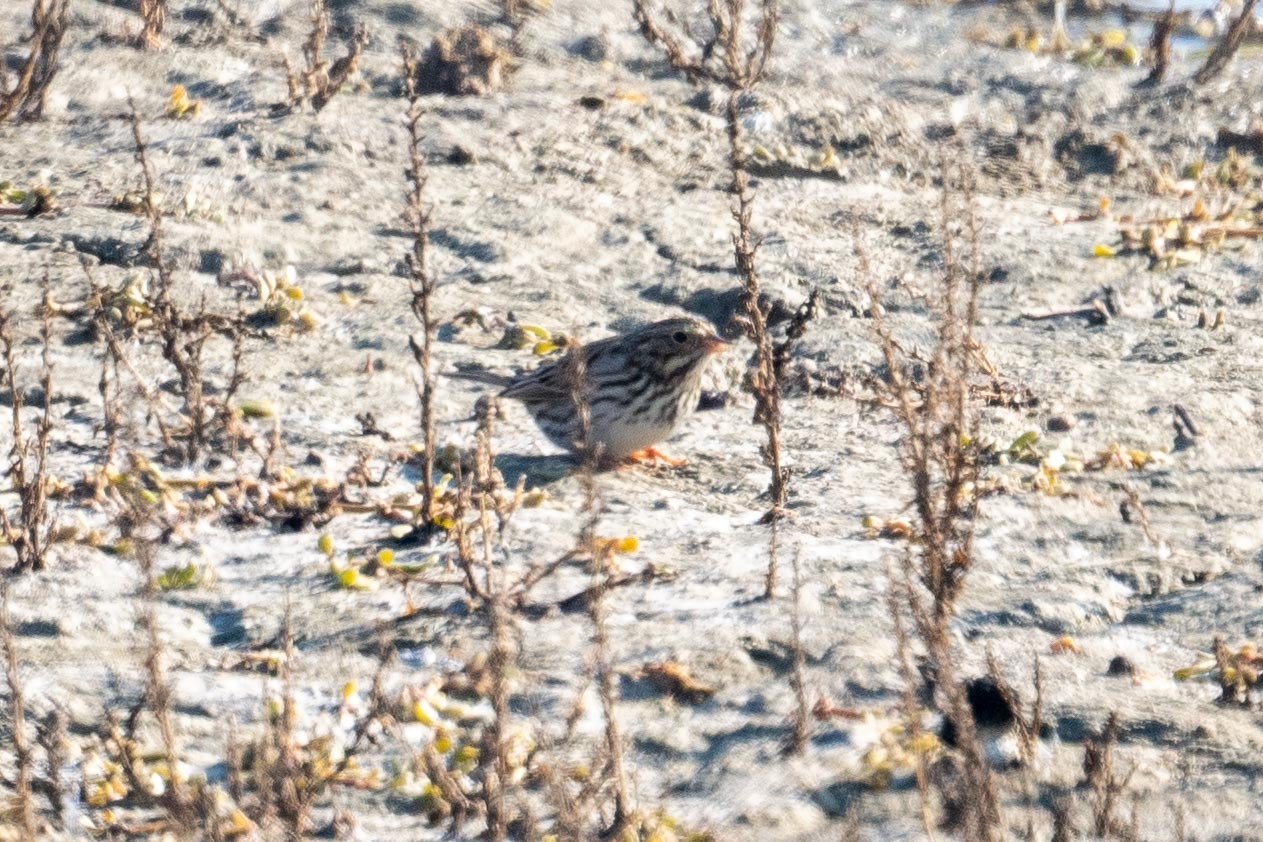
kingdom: Animalia
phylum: Chordata
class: Aves
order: Passeriformes
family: Passerellidae
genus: Passerculus
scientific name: Passerculus sandwichensis
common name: Savannah sparrow
